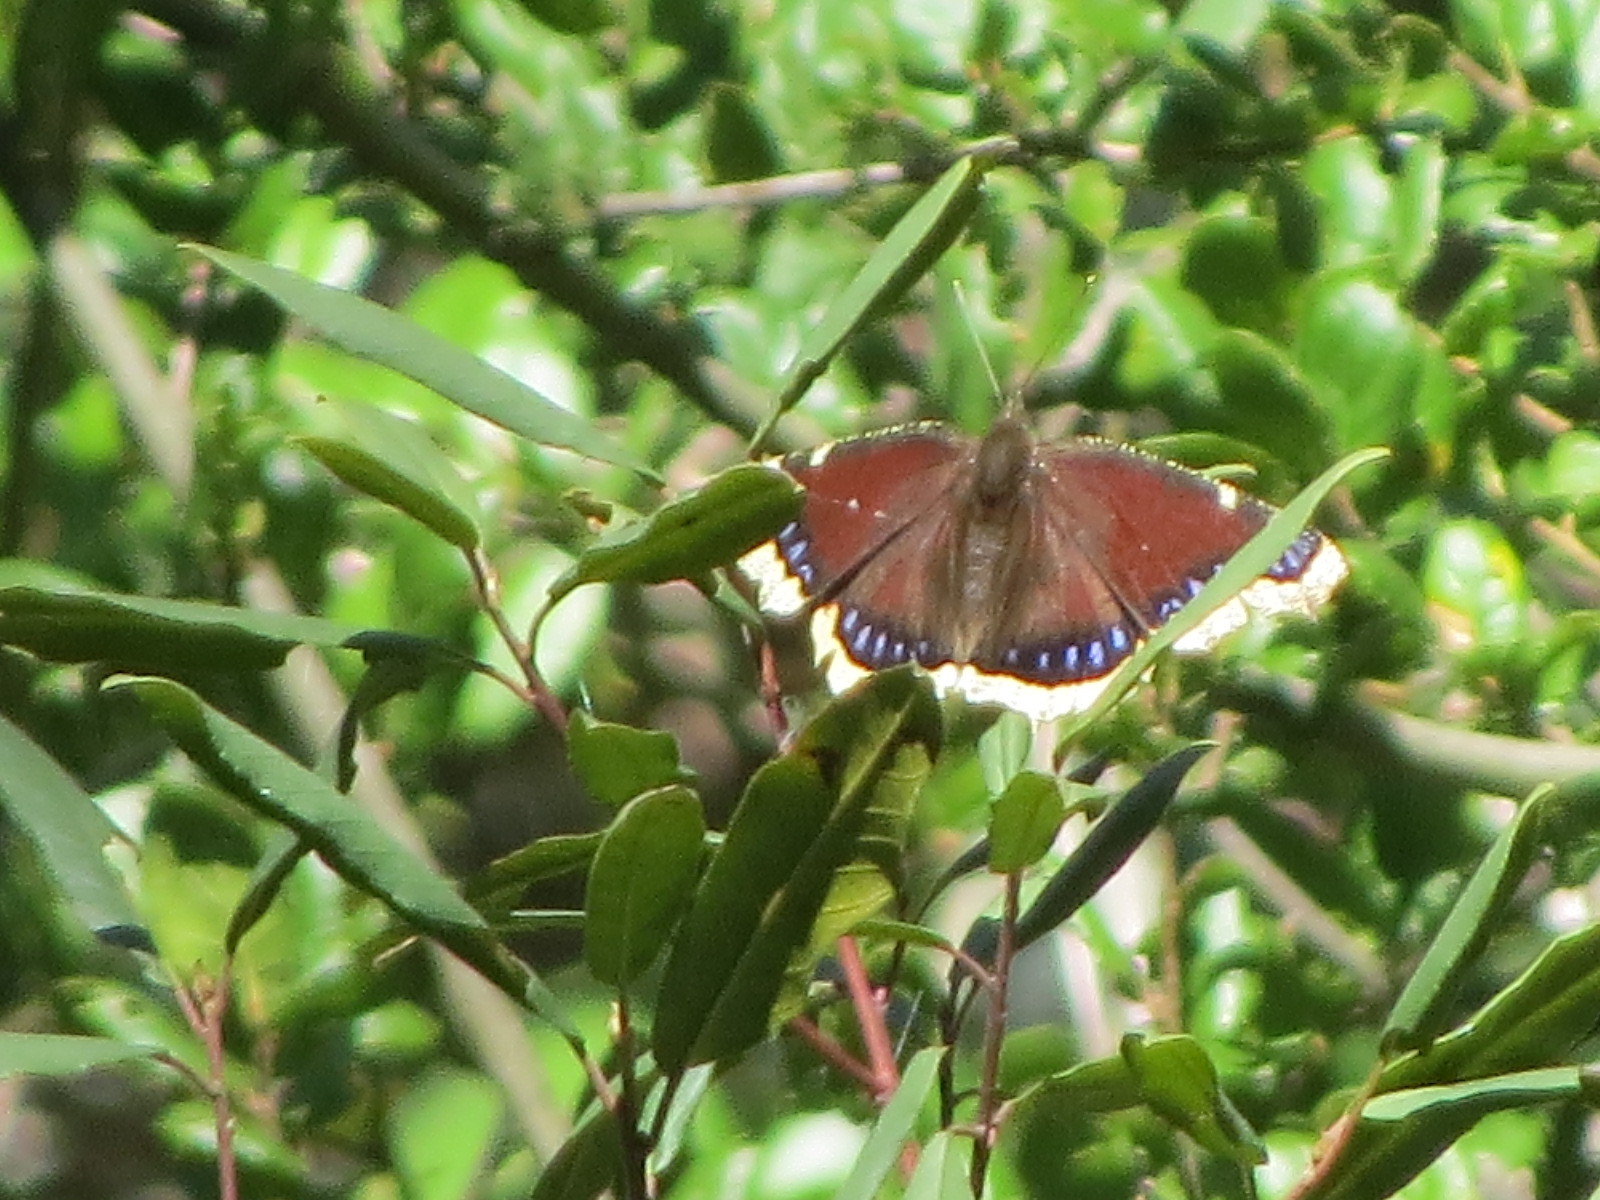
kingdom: Animalia
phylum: Arthropoda
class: Insecta
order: Lepidoptera
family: Nymphalidae
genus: Nymphalis
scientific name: Nymphalis antiopa
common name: Camberwell beauty
